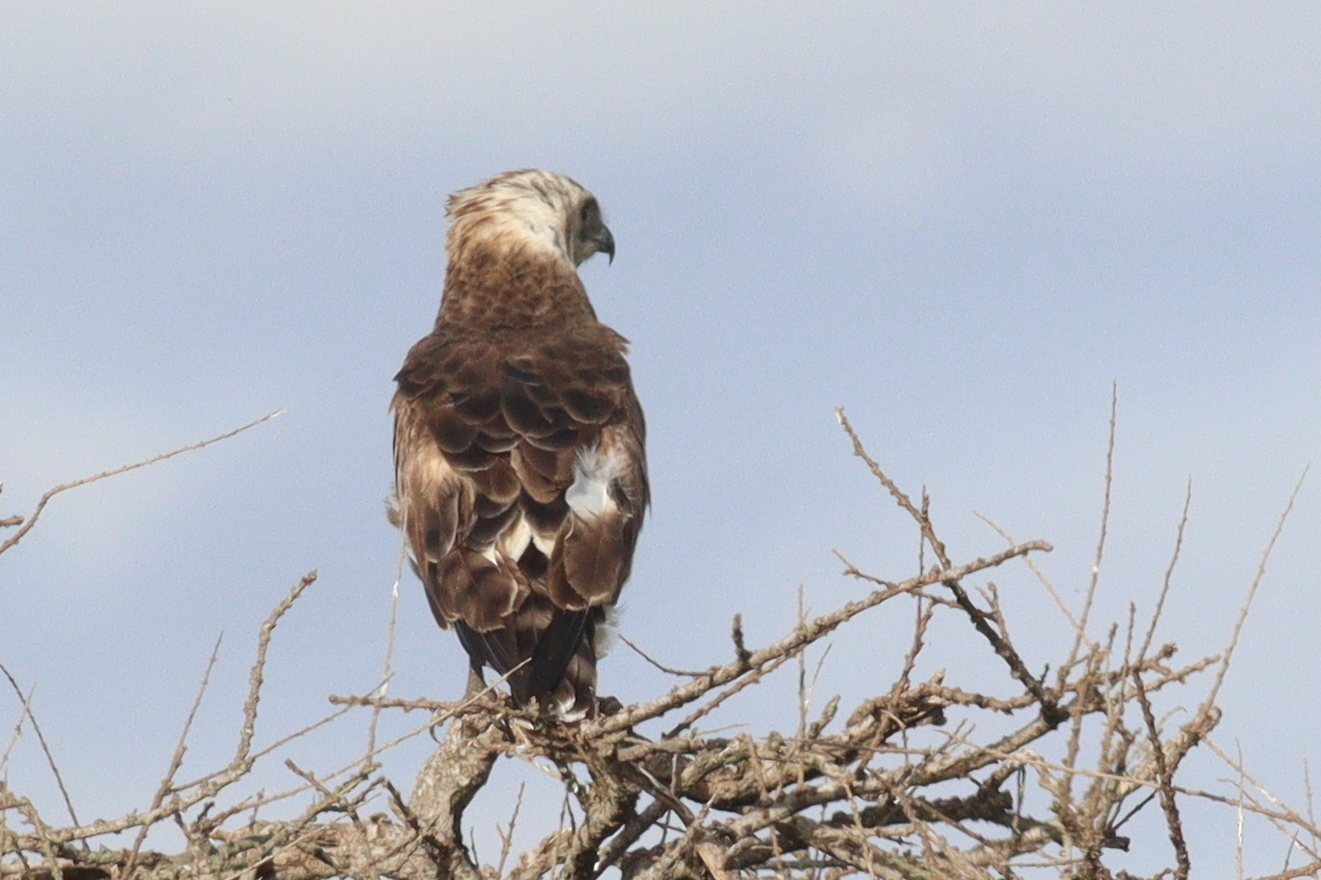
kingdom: Animalia
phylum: Chordata
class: Aves
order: Accipitriformes
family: Accipitridae
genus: Circaetus
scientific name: Circaetus pectoralis
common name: Black-chested snake eagle
